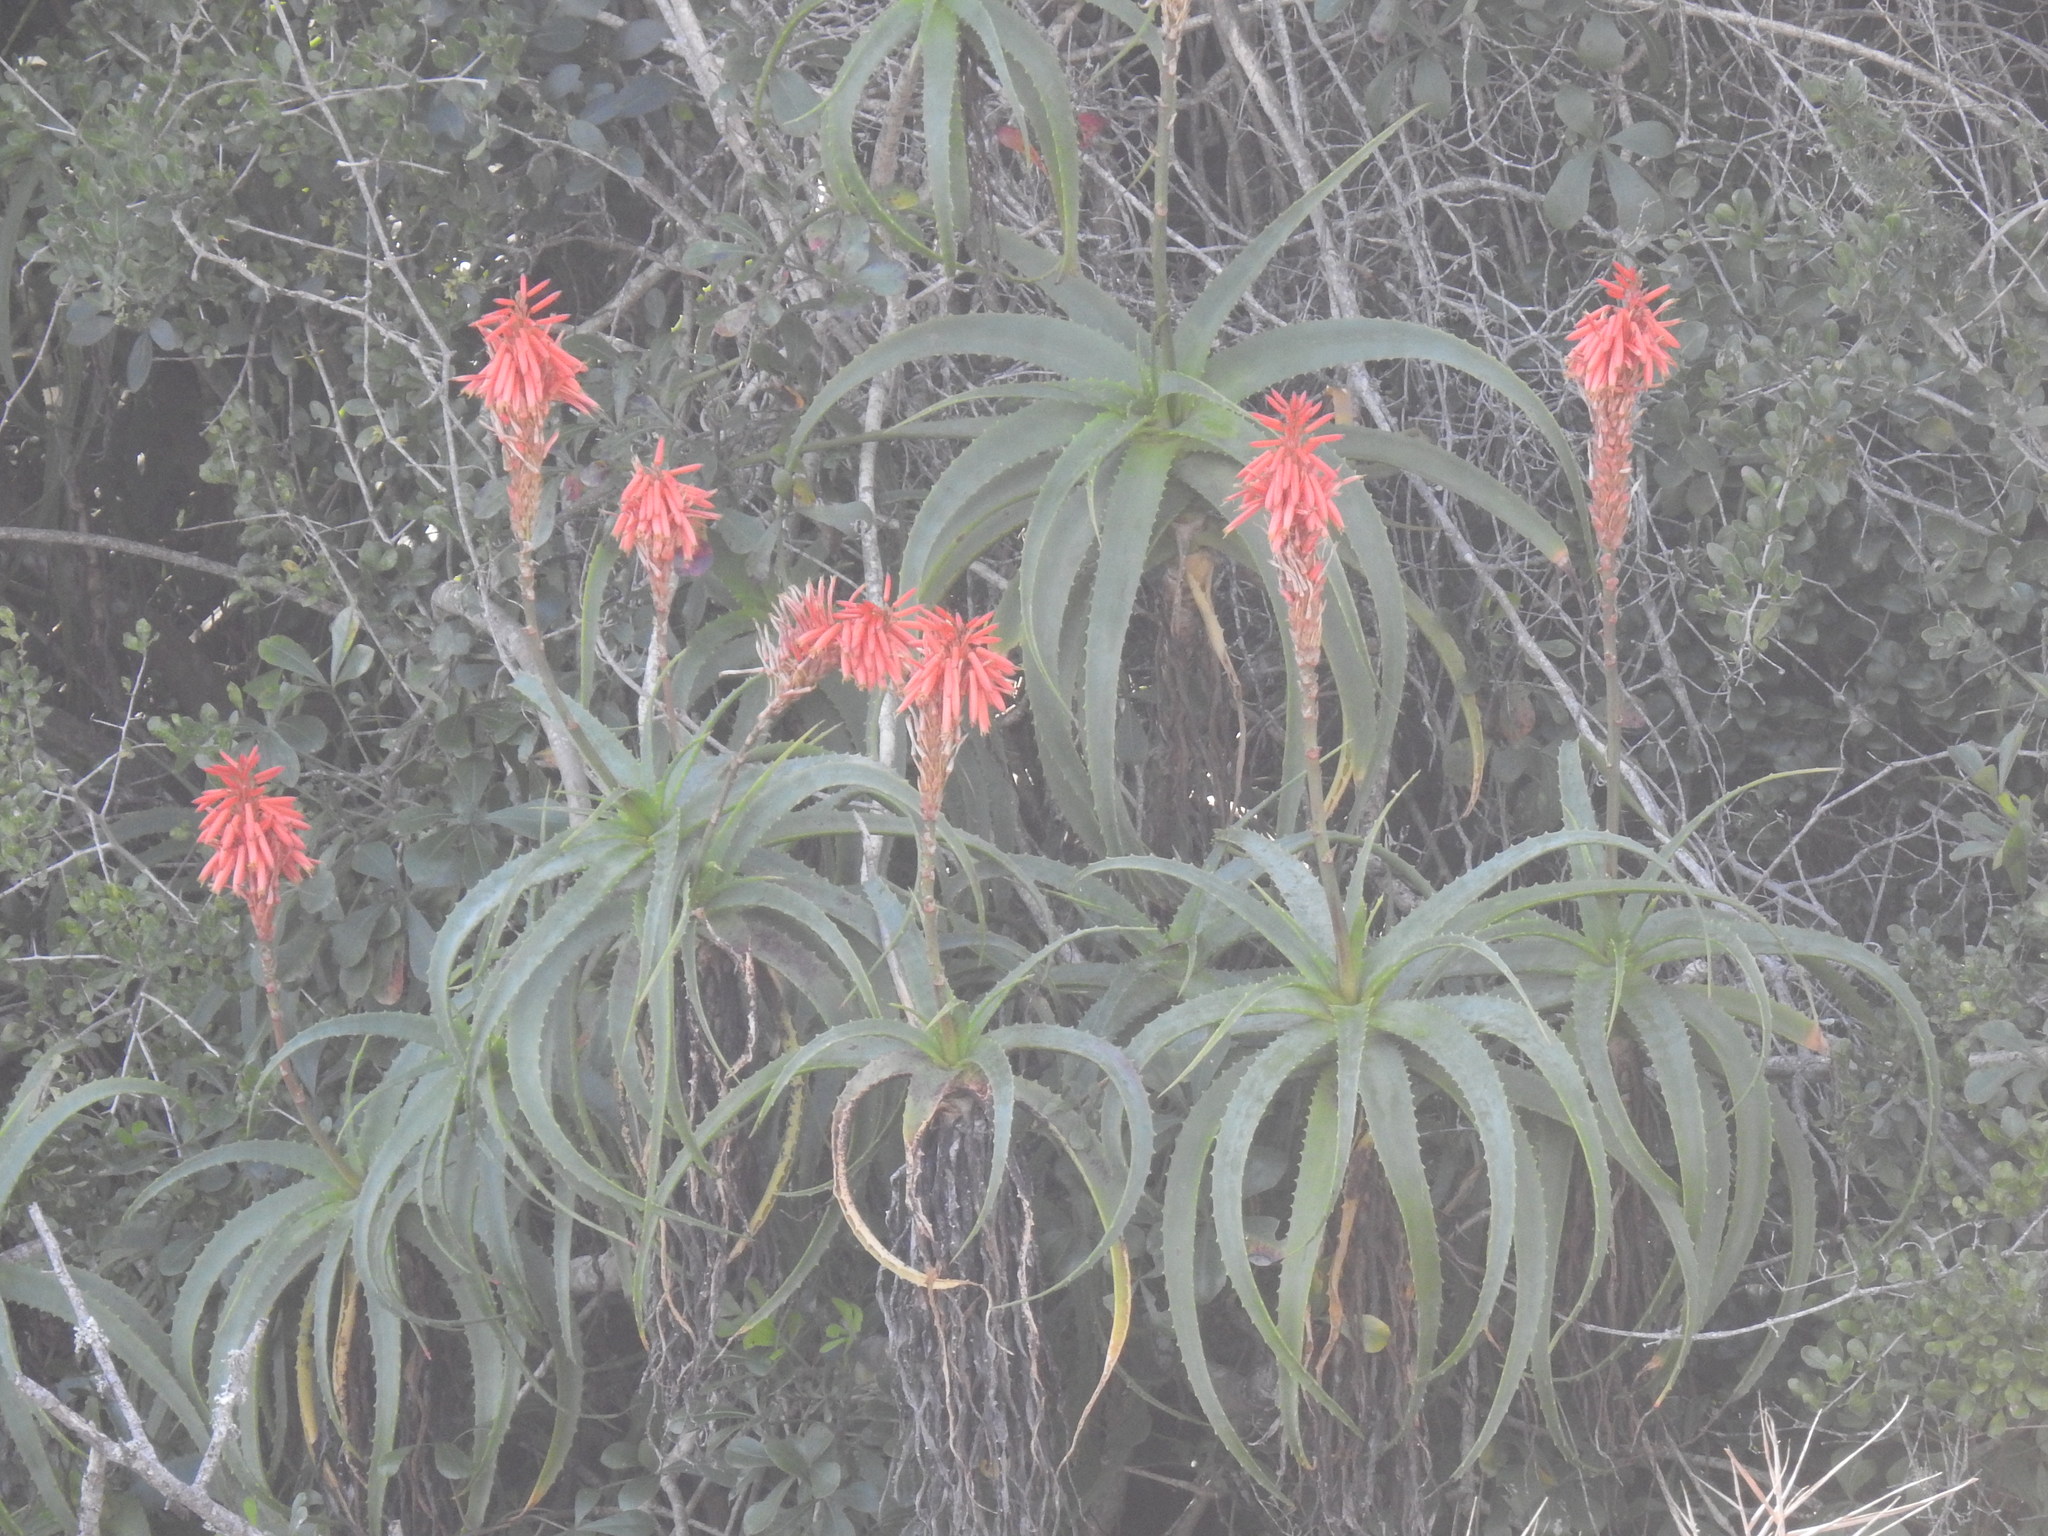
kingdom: Plantae
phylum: Tracheophyta
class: Liliopsida
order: Asparagales
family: Asphodelaceae
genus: Aloe
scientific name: Aloe arborescens
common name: Candelabra aloe
